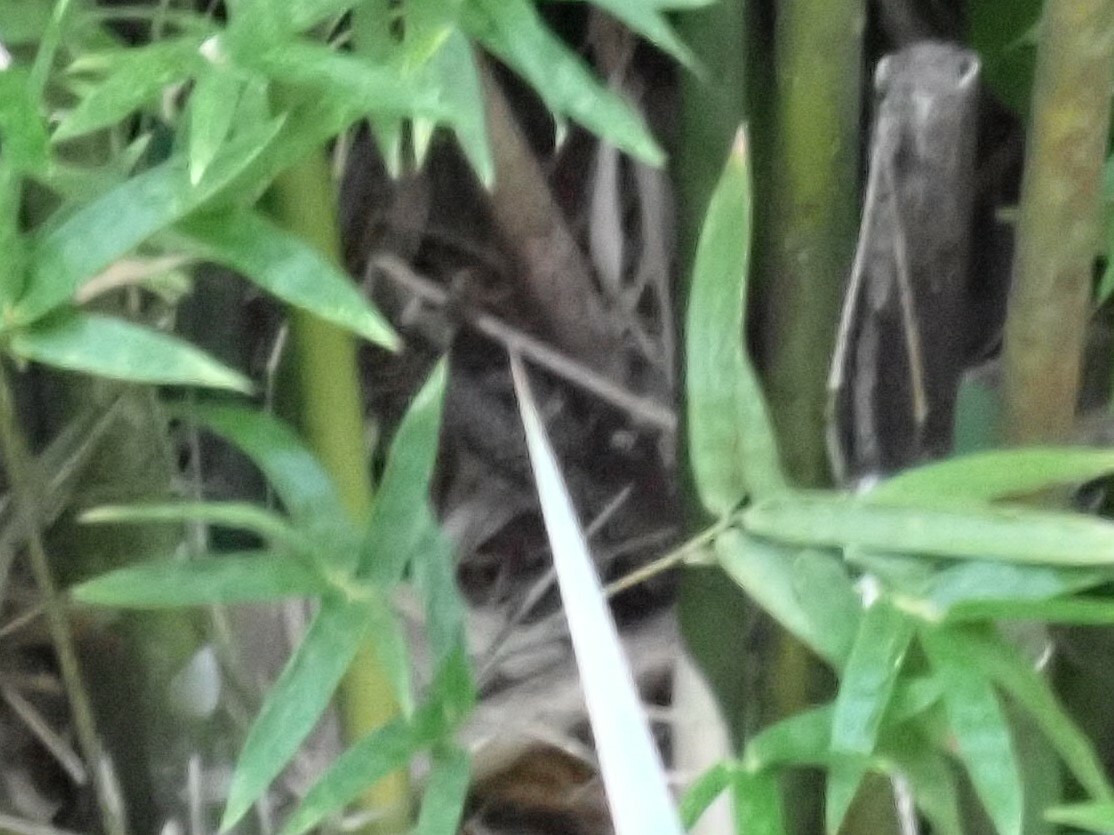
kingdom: Animalia
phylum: Chordata
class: Squamata
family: Colubridae
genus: Drymobius
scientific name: Drymobius margaritiferus
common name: Central american speckled racer
